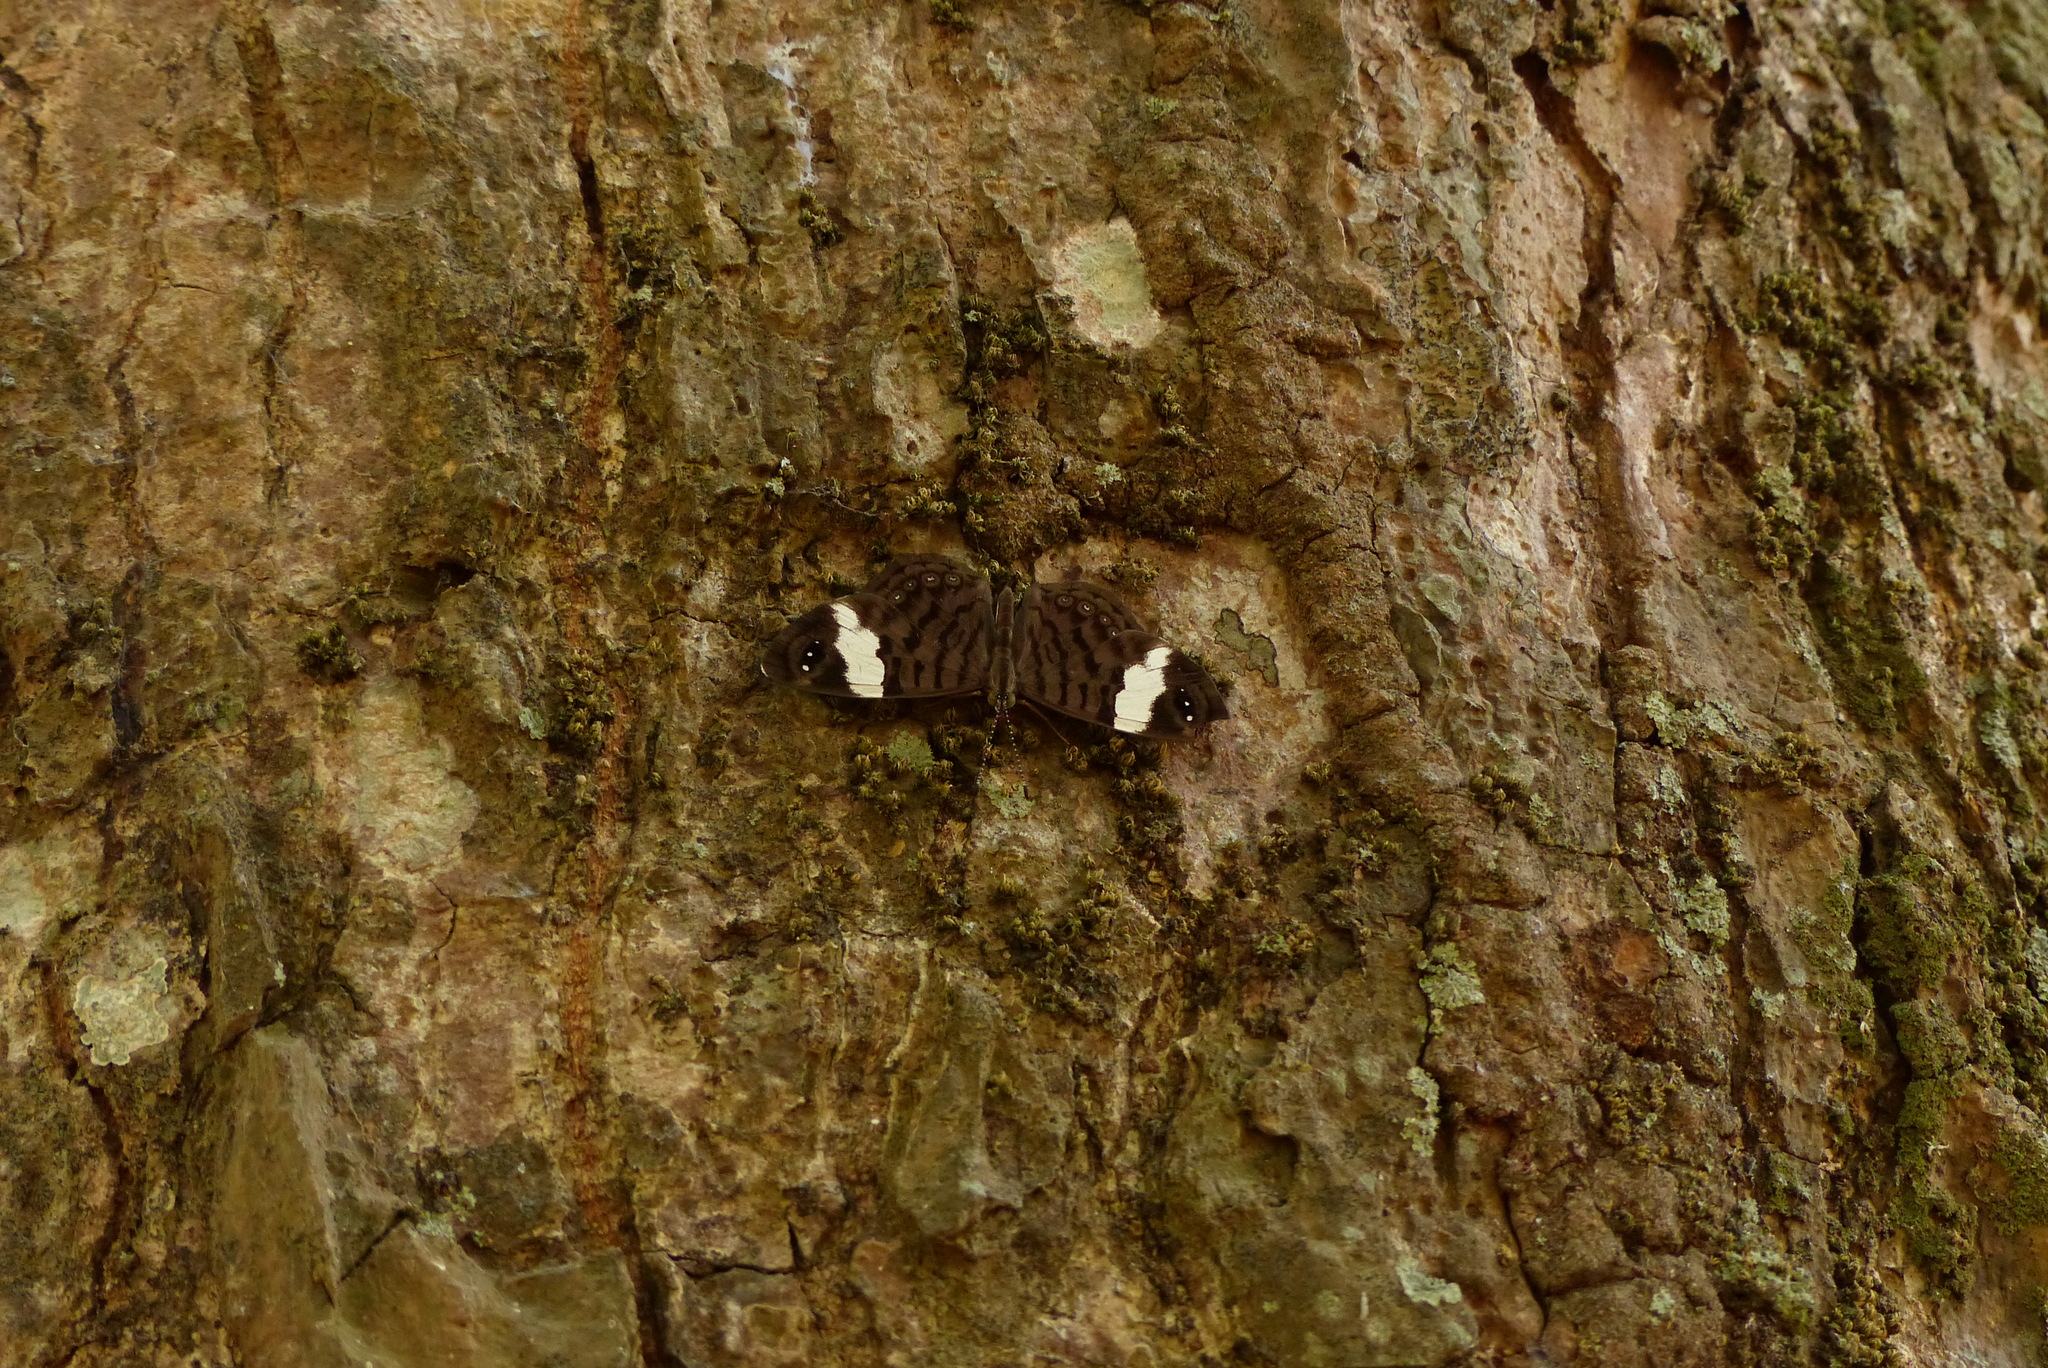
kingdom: Animalia
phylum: Arthropoda
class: Insecta
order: Lepidoptera
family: Nymphalidae
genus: Ectima
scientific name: Ectima thecla
